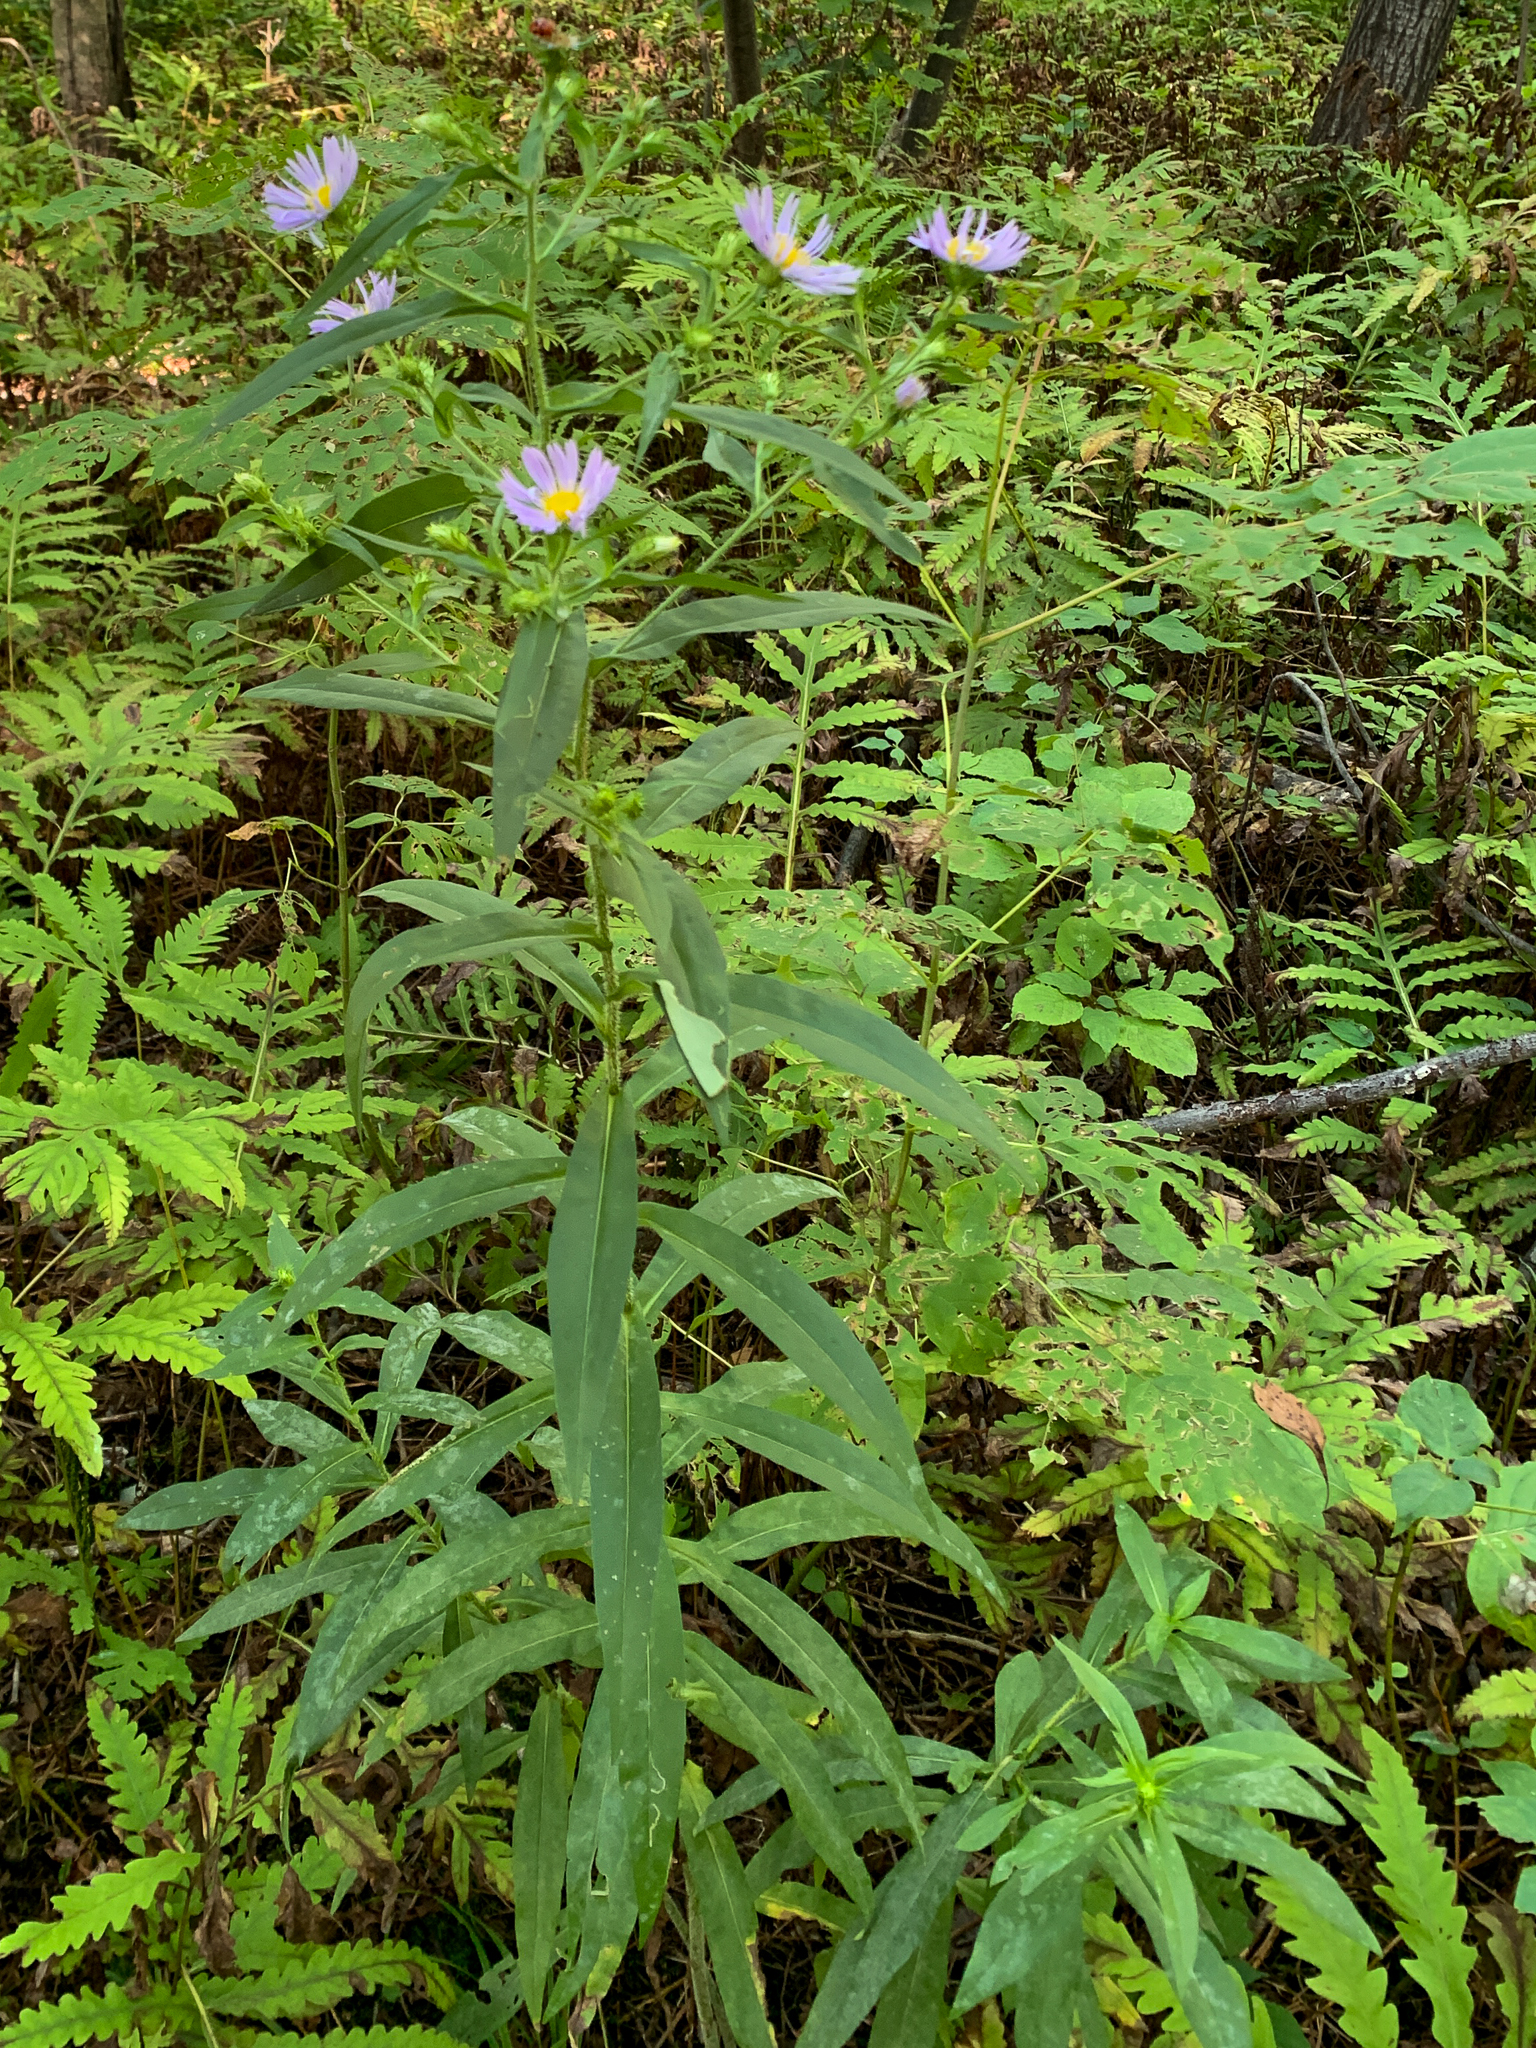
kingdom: Plantae
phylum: Tracheophyta
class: Magnoliopsida
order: Asterales
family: Asteraceae
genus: Symphyotrichum
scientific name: Symphyotrichum puniceum
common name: Bog aster
